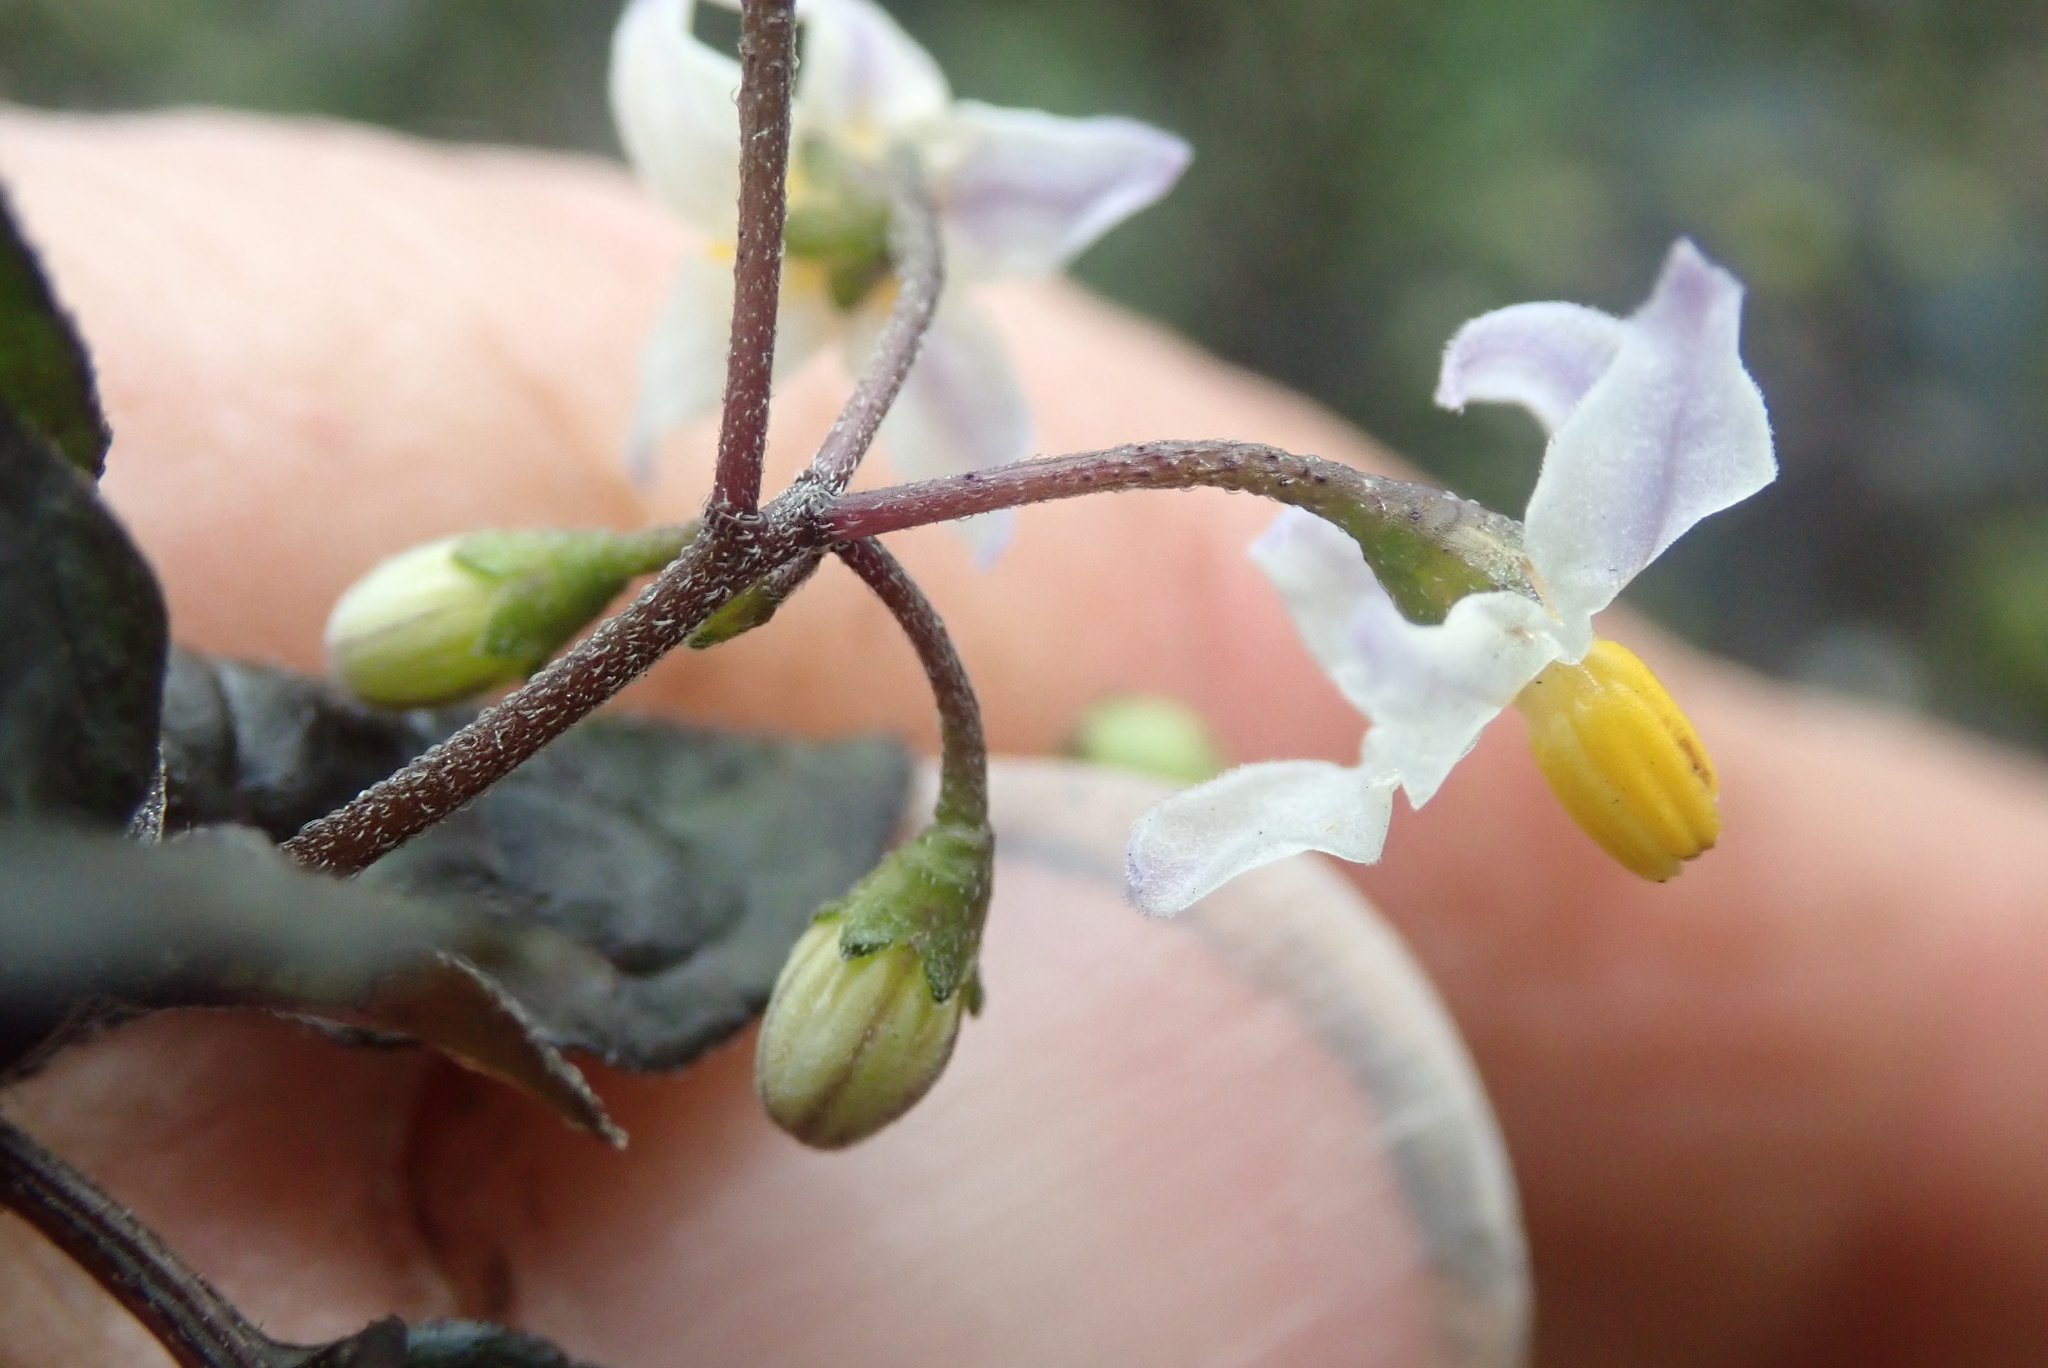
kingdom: Plantae
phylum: Tracheophyta
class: Magnoliopsida
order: Solanales
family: Solanaceae
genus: Solanum
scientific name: Solanum nigrum
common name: Black nightshade
